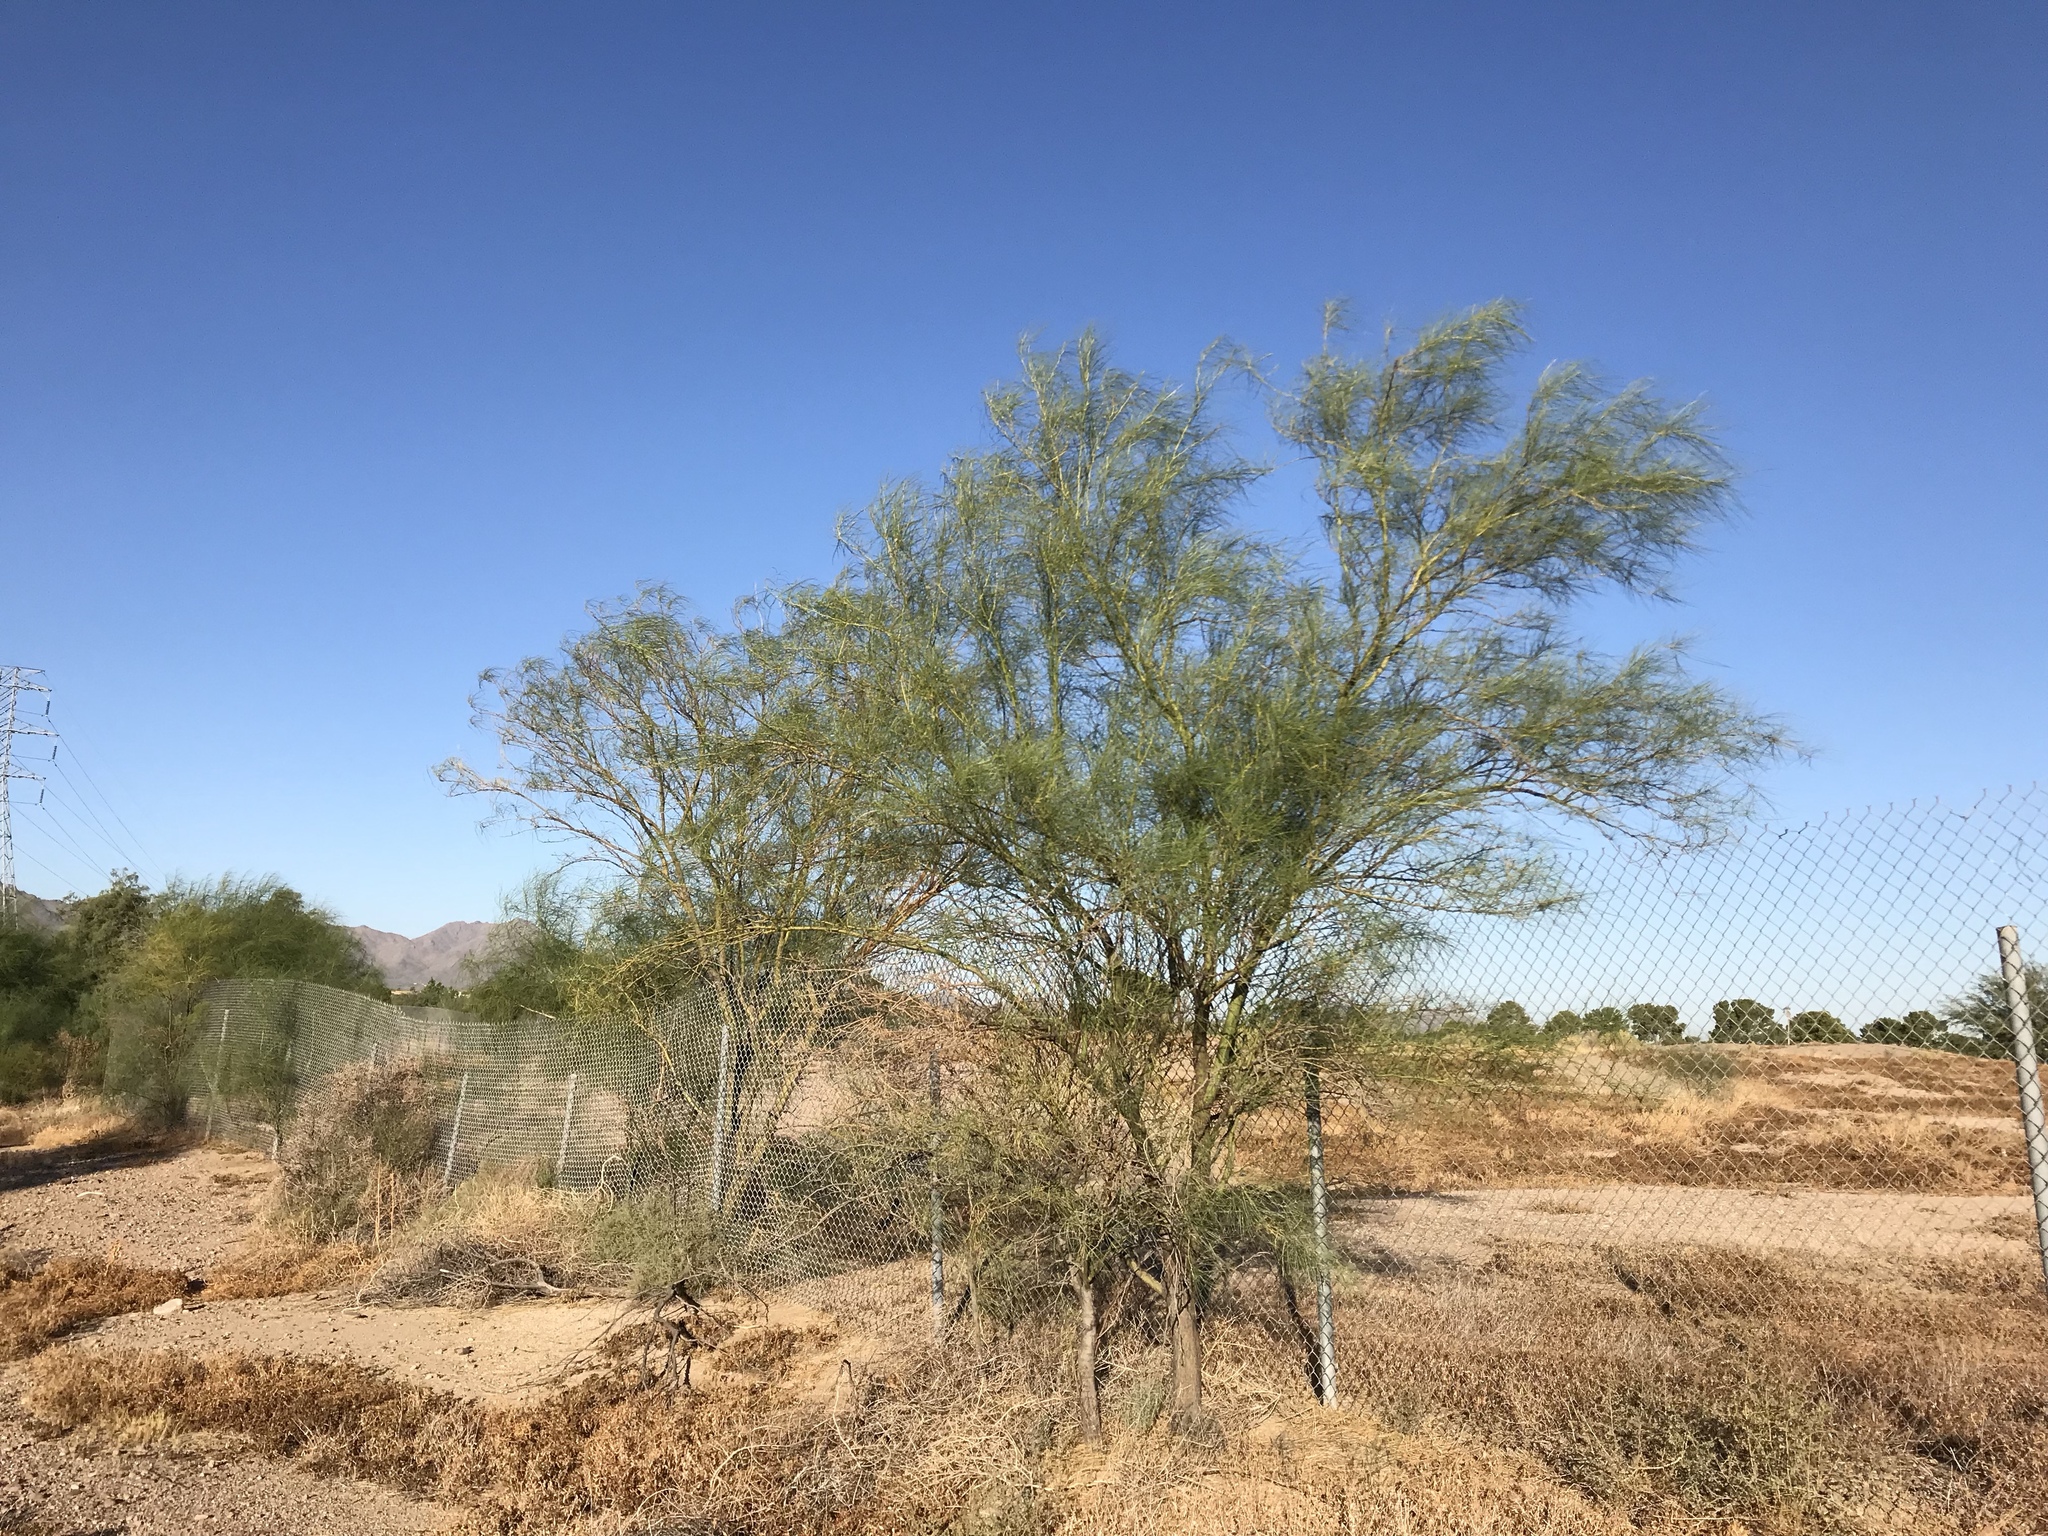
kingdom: Plantae
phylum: Tracheophyta
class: Magnoliopsida
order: Fabales
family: Fabaceae
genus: Parkinsonia
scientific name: Parkinsonia aculeata
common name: Jerusalem thorn
